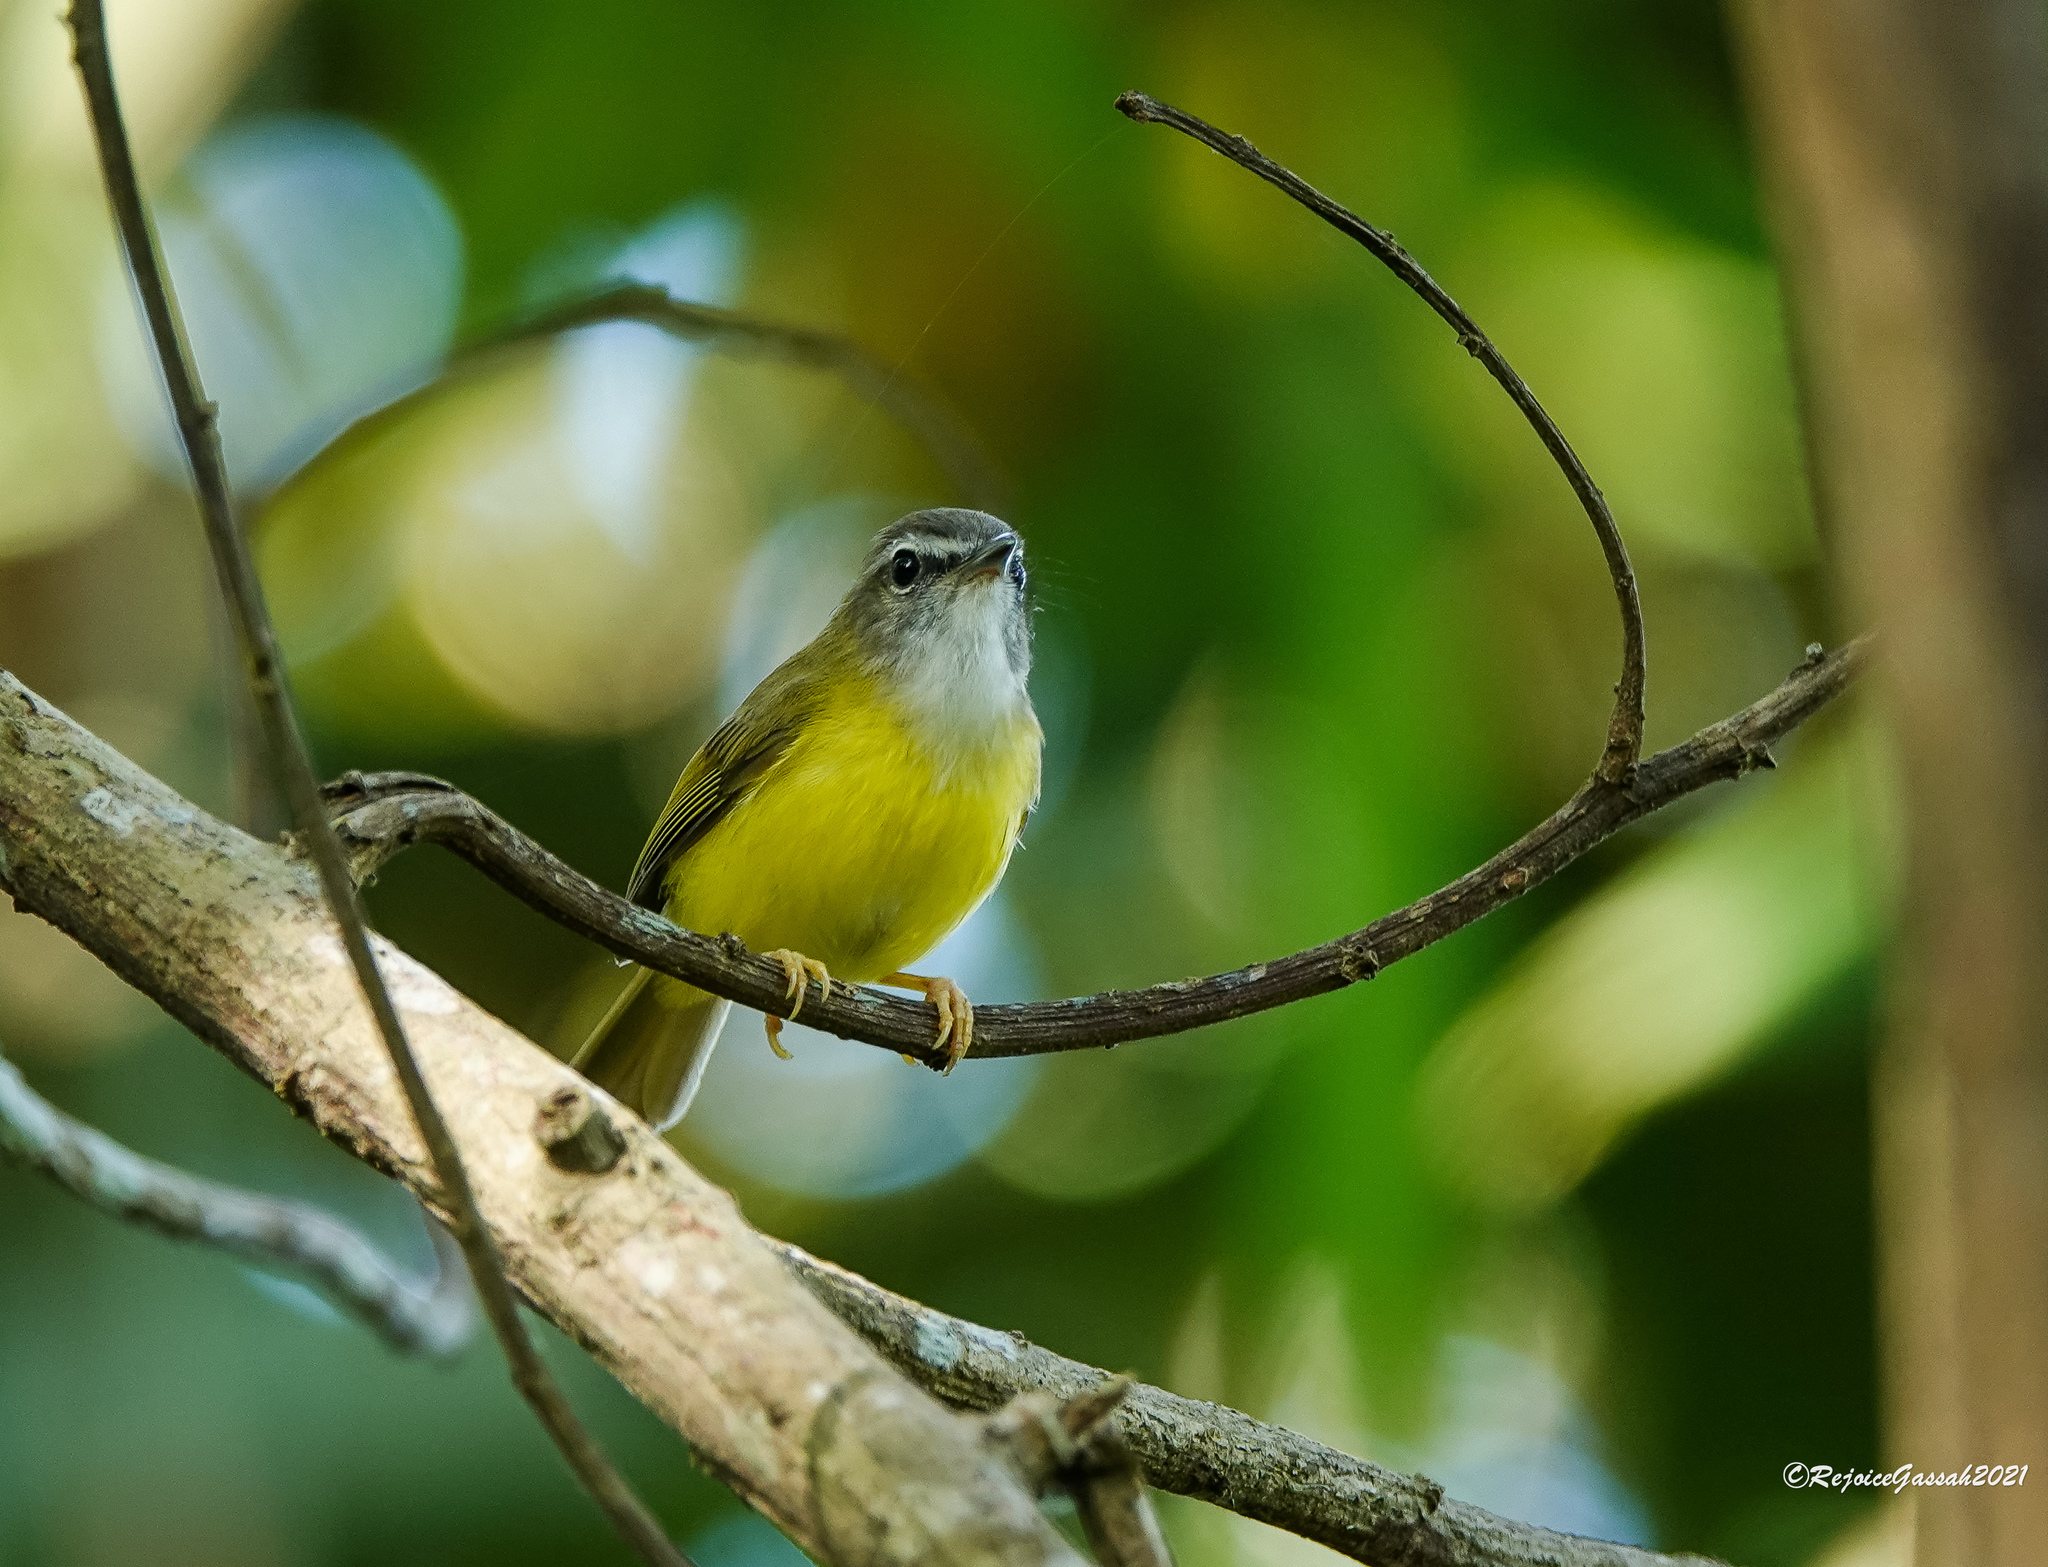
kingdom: Animalia
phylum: Chordata
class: Aves
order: Passeriformes
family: Cettiidae
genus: Abroscopus
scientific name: Abroscopus superciliaris
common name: Yellow-bellied warbler
